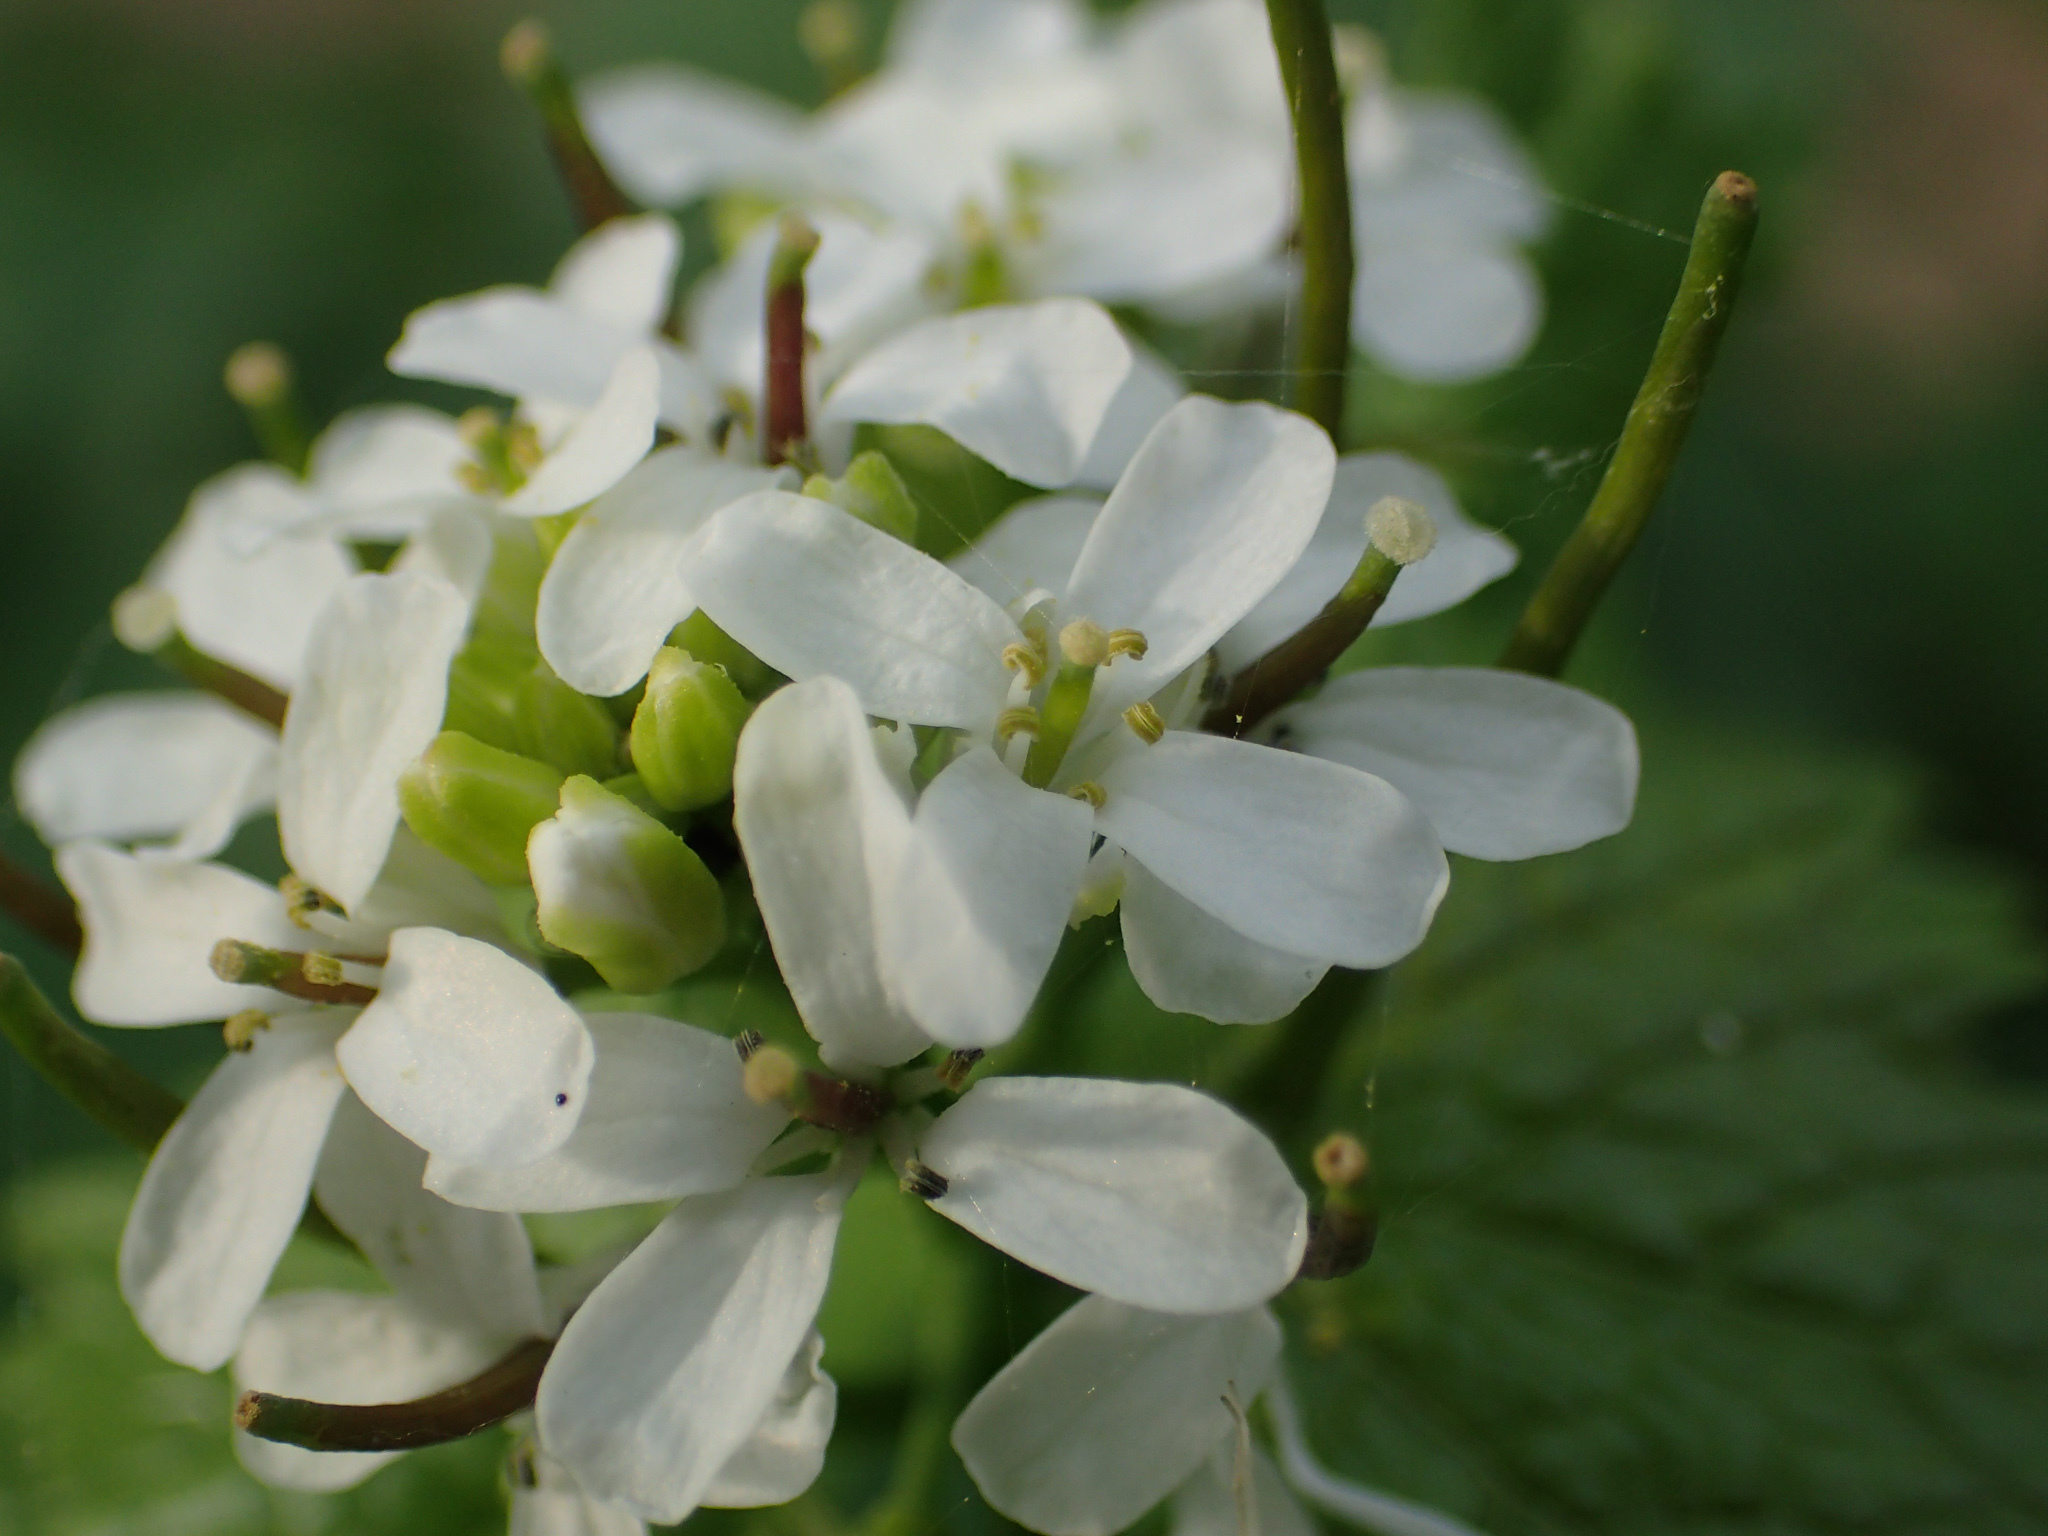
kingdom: Plantae
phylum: Tracheophyta
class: Magnoliopsida
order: Brassicales
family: Brassicaceae
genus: Alliaria
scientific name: Alliaria petiolata
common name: Garlic mustard
